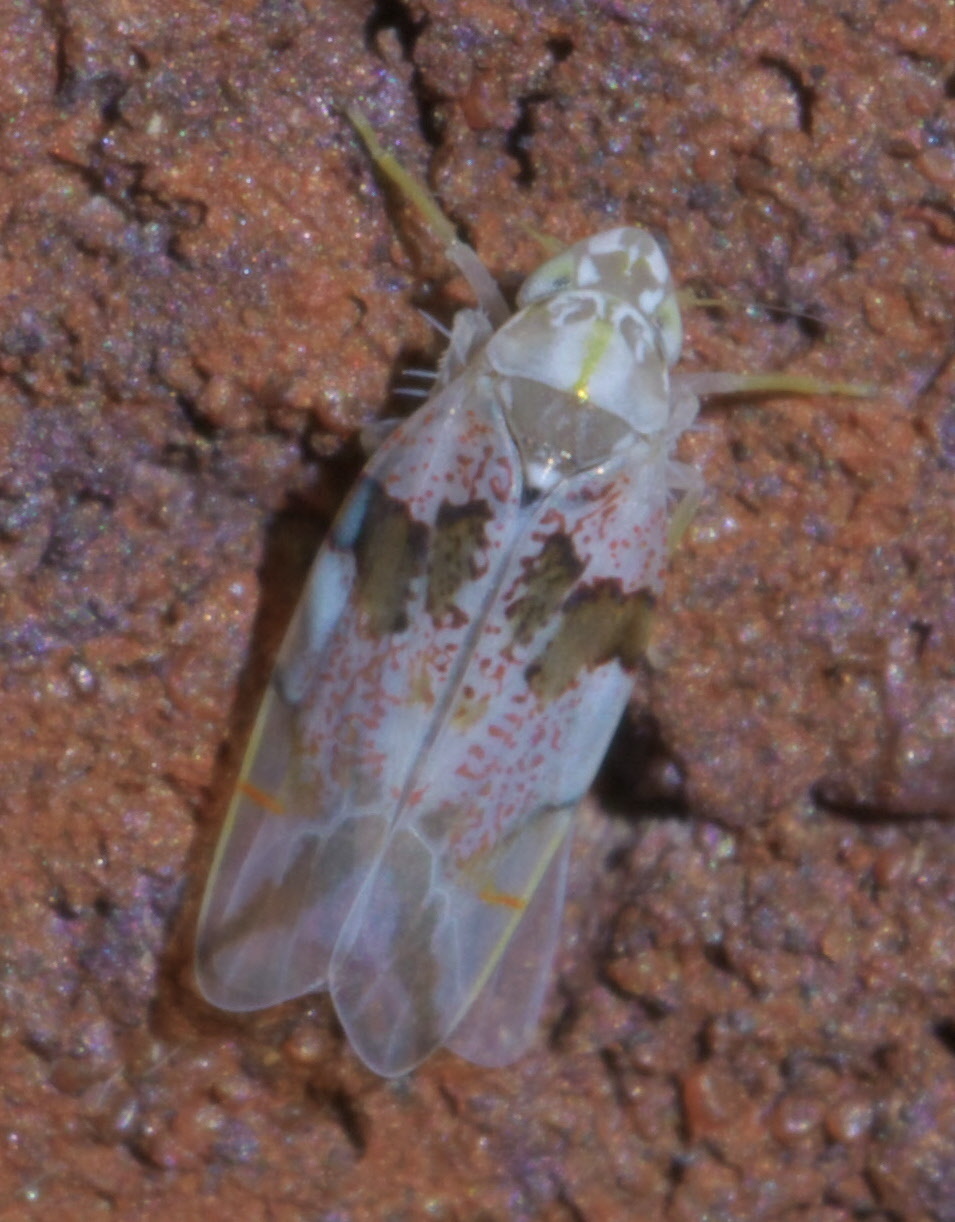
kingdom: Animalia
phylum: Arthropoda
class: Insecta
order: Hemiptera
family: Cicadellidae
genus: Hymetta
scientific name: Hymetta balteata
